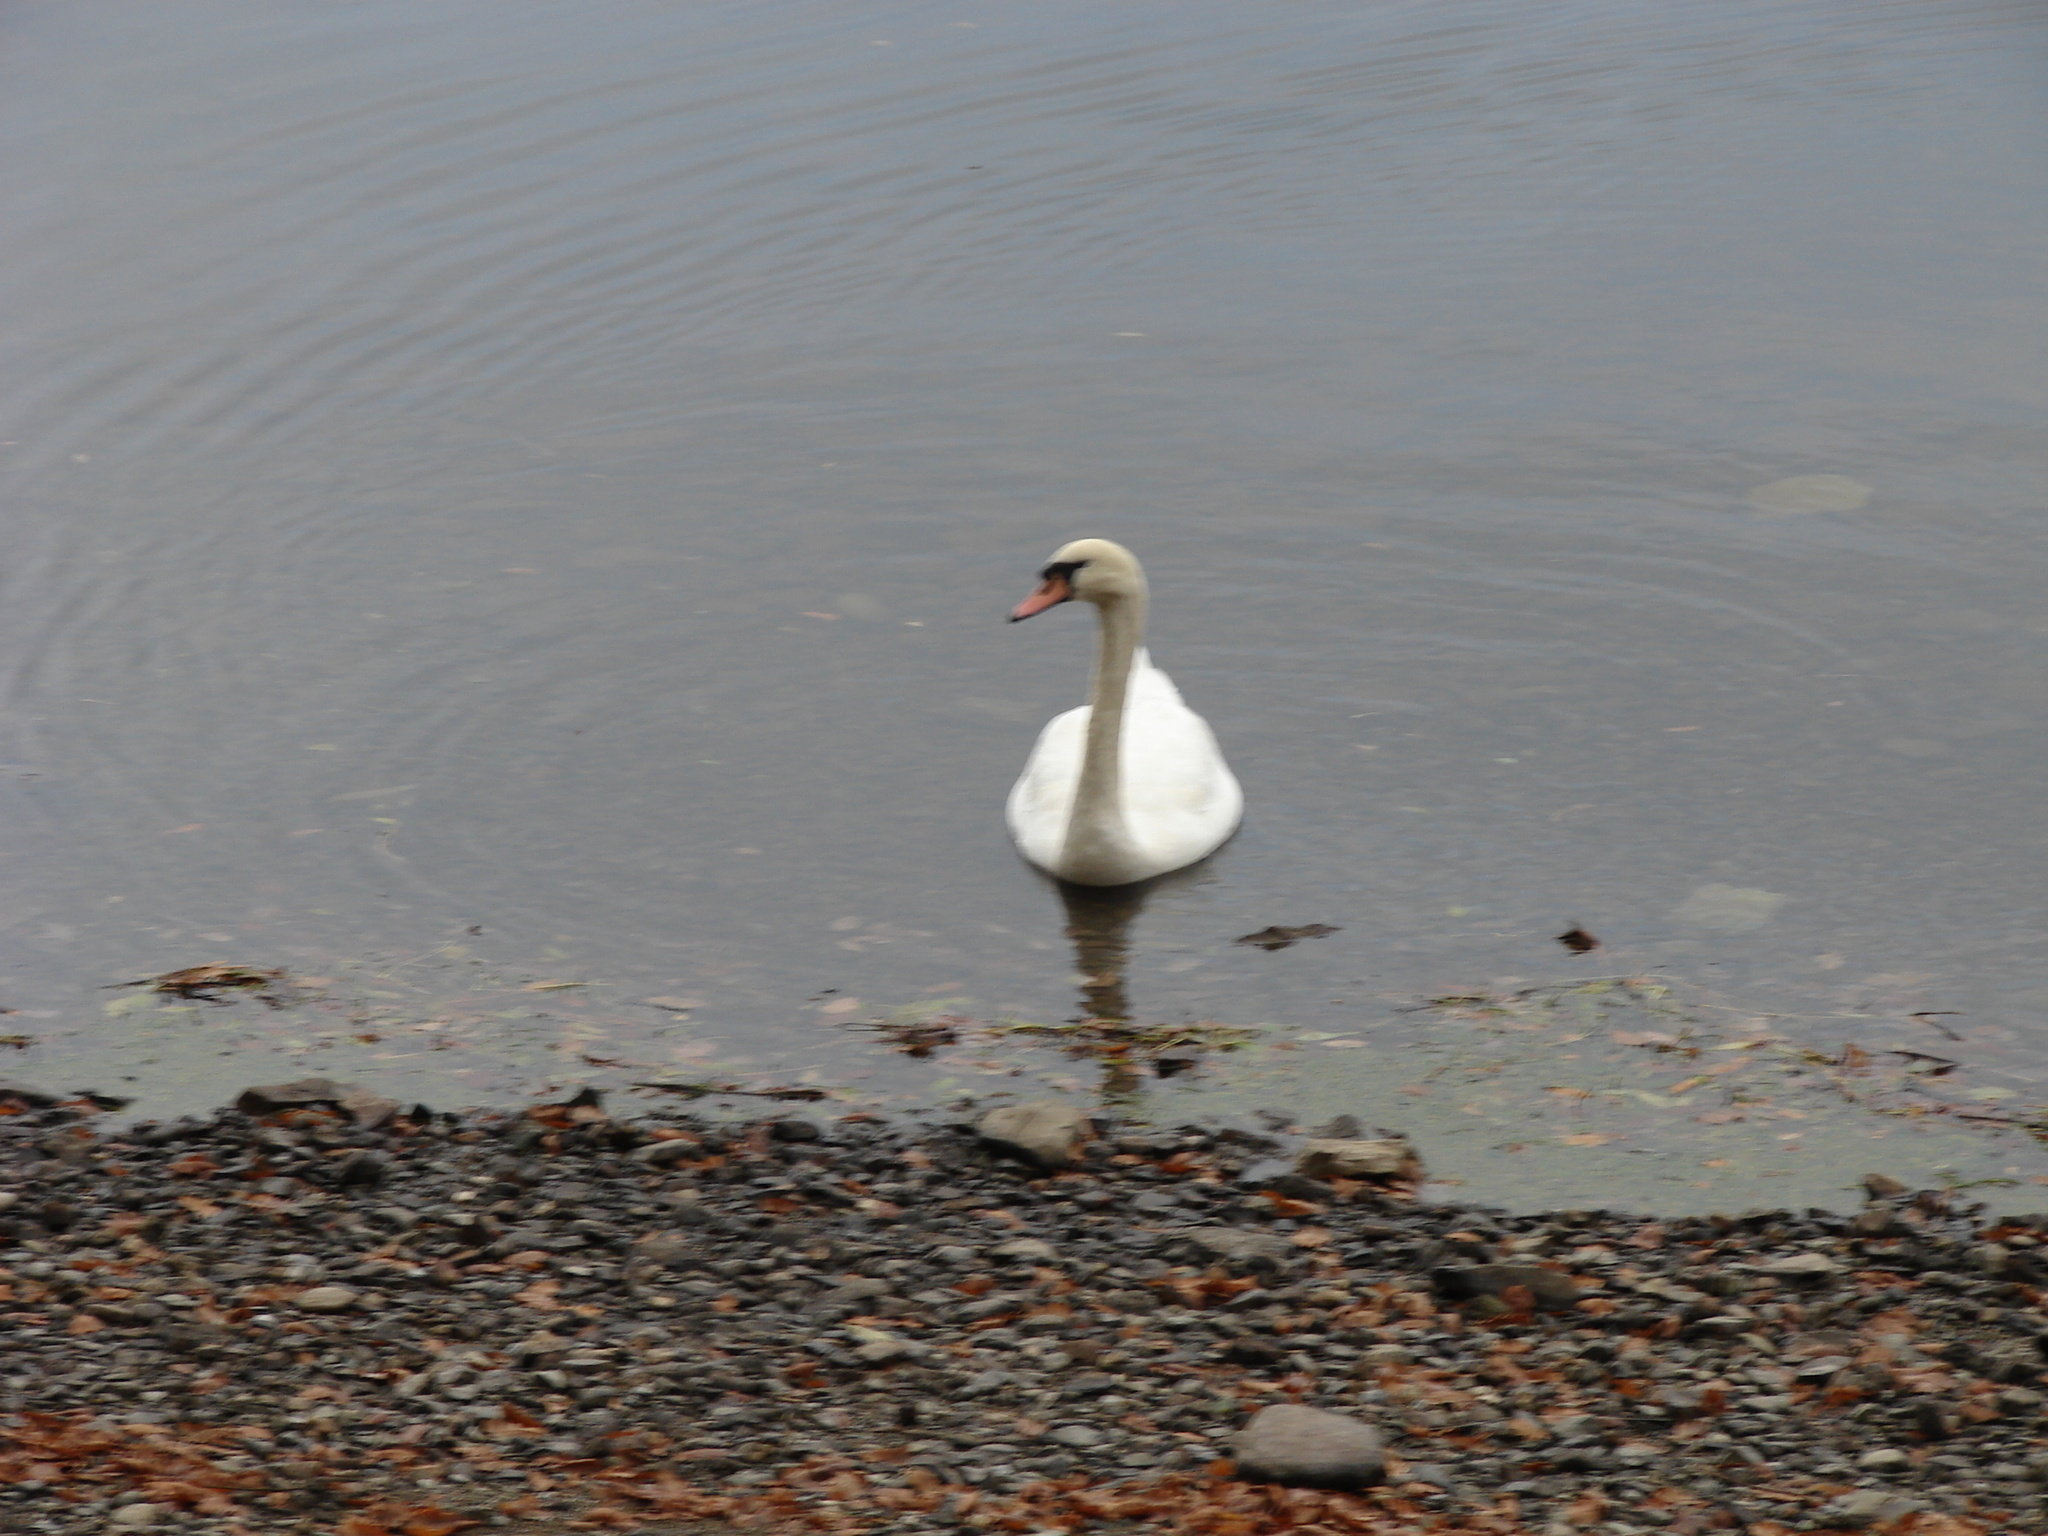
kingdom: Animalia
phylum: Chordata
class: Aves
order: Anseriformes
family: Anatidae
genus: Cygnus
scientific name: Cygnus olor
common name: Mute swan
